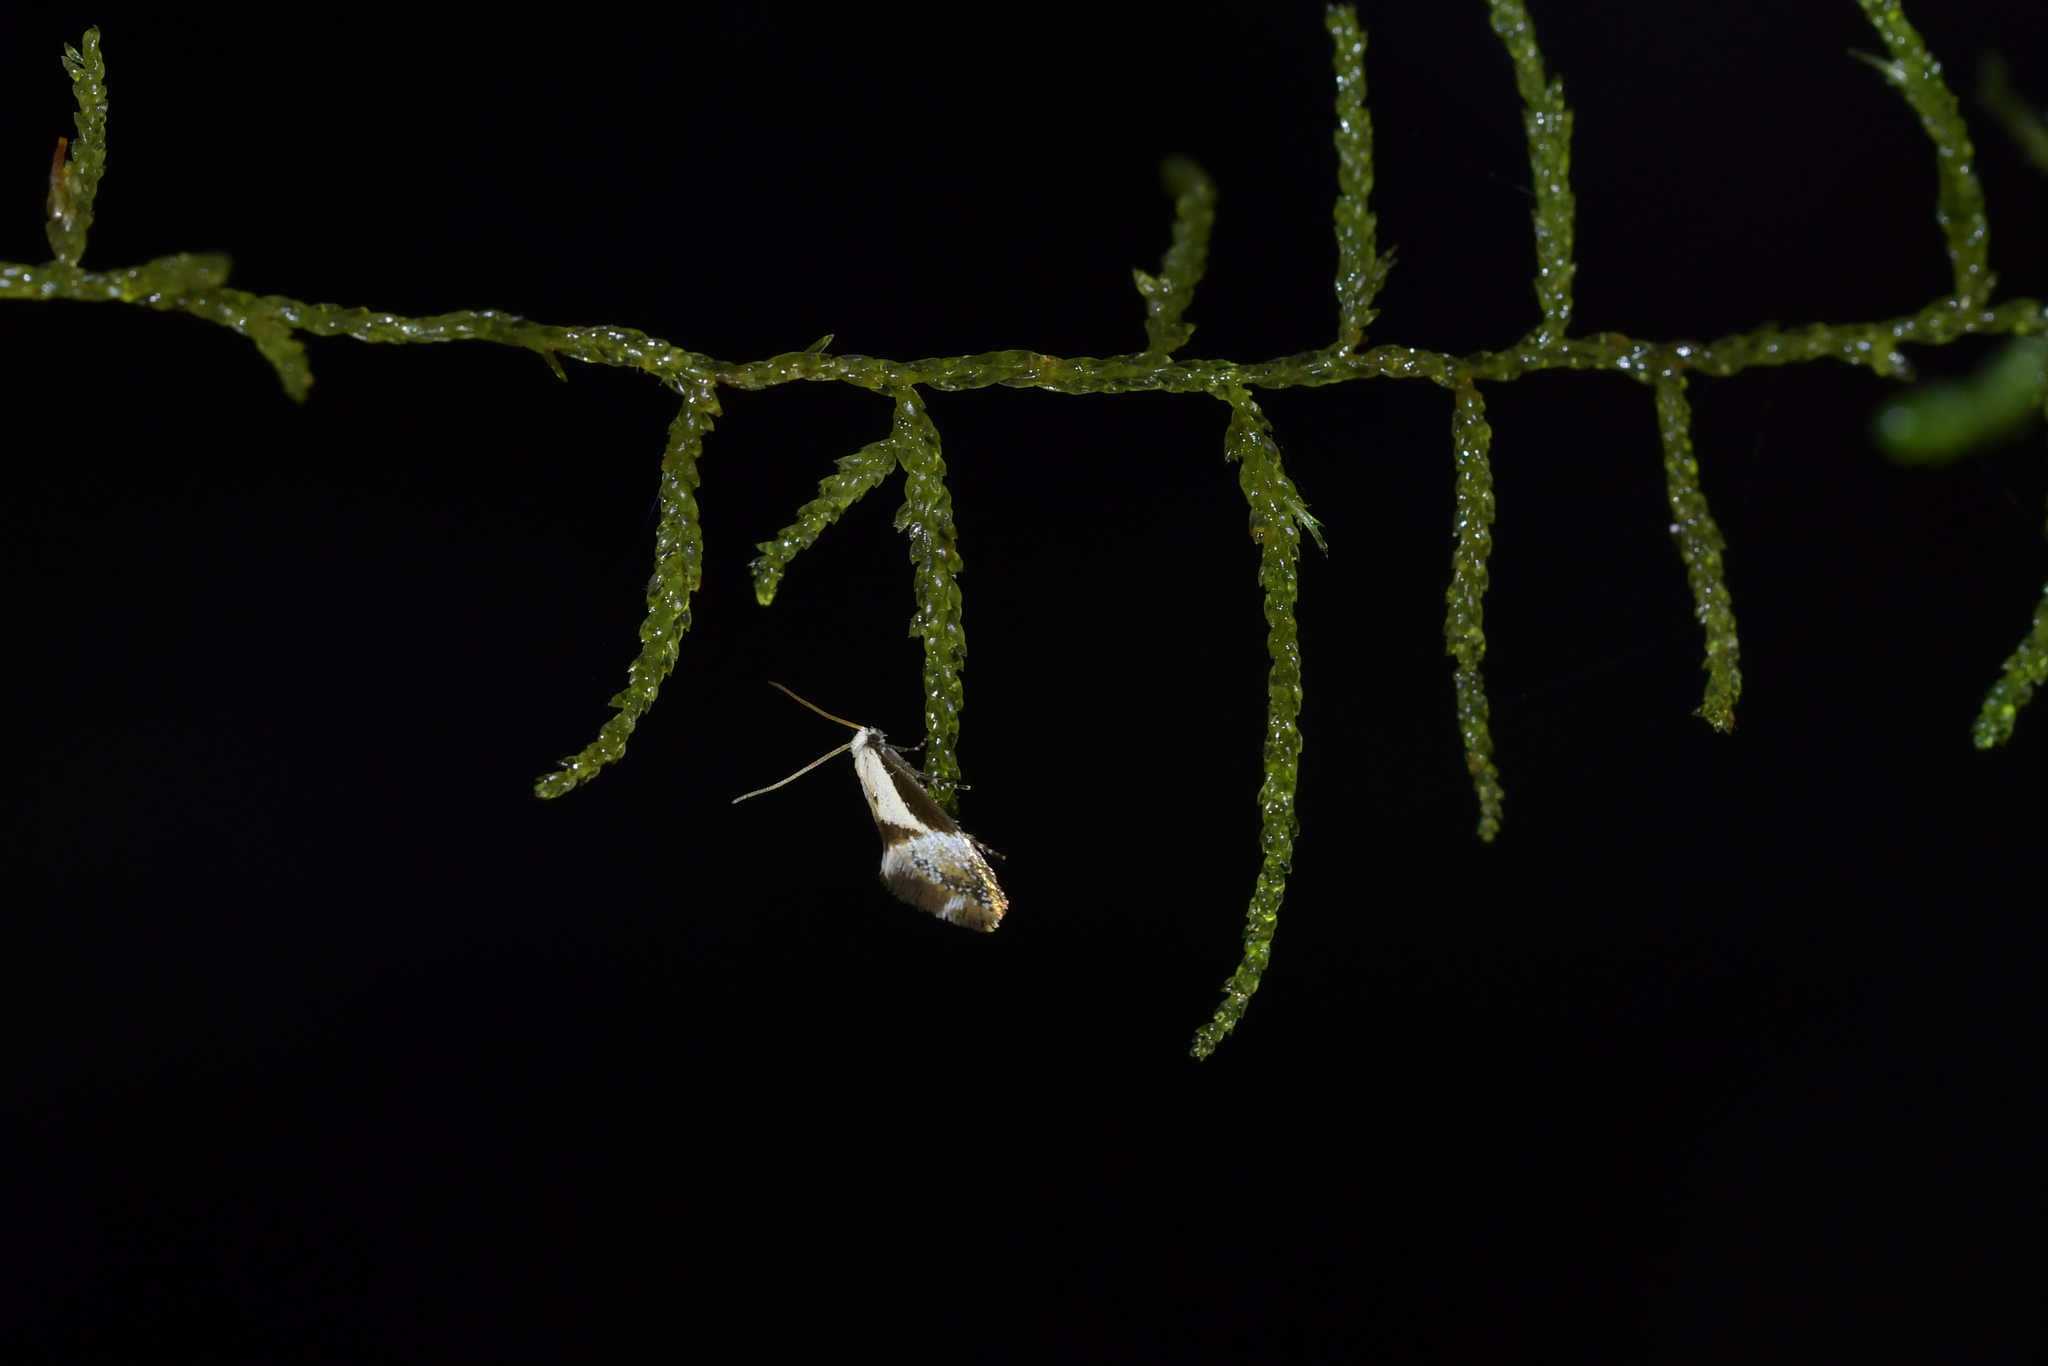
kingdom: Animalia
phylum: Arthropoda
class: Insecta
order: Lepidoptera
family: Mnesarchaeidae
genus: Mnesarchella
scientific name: Mnesarchella fusilella
